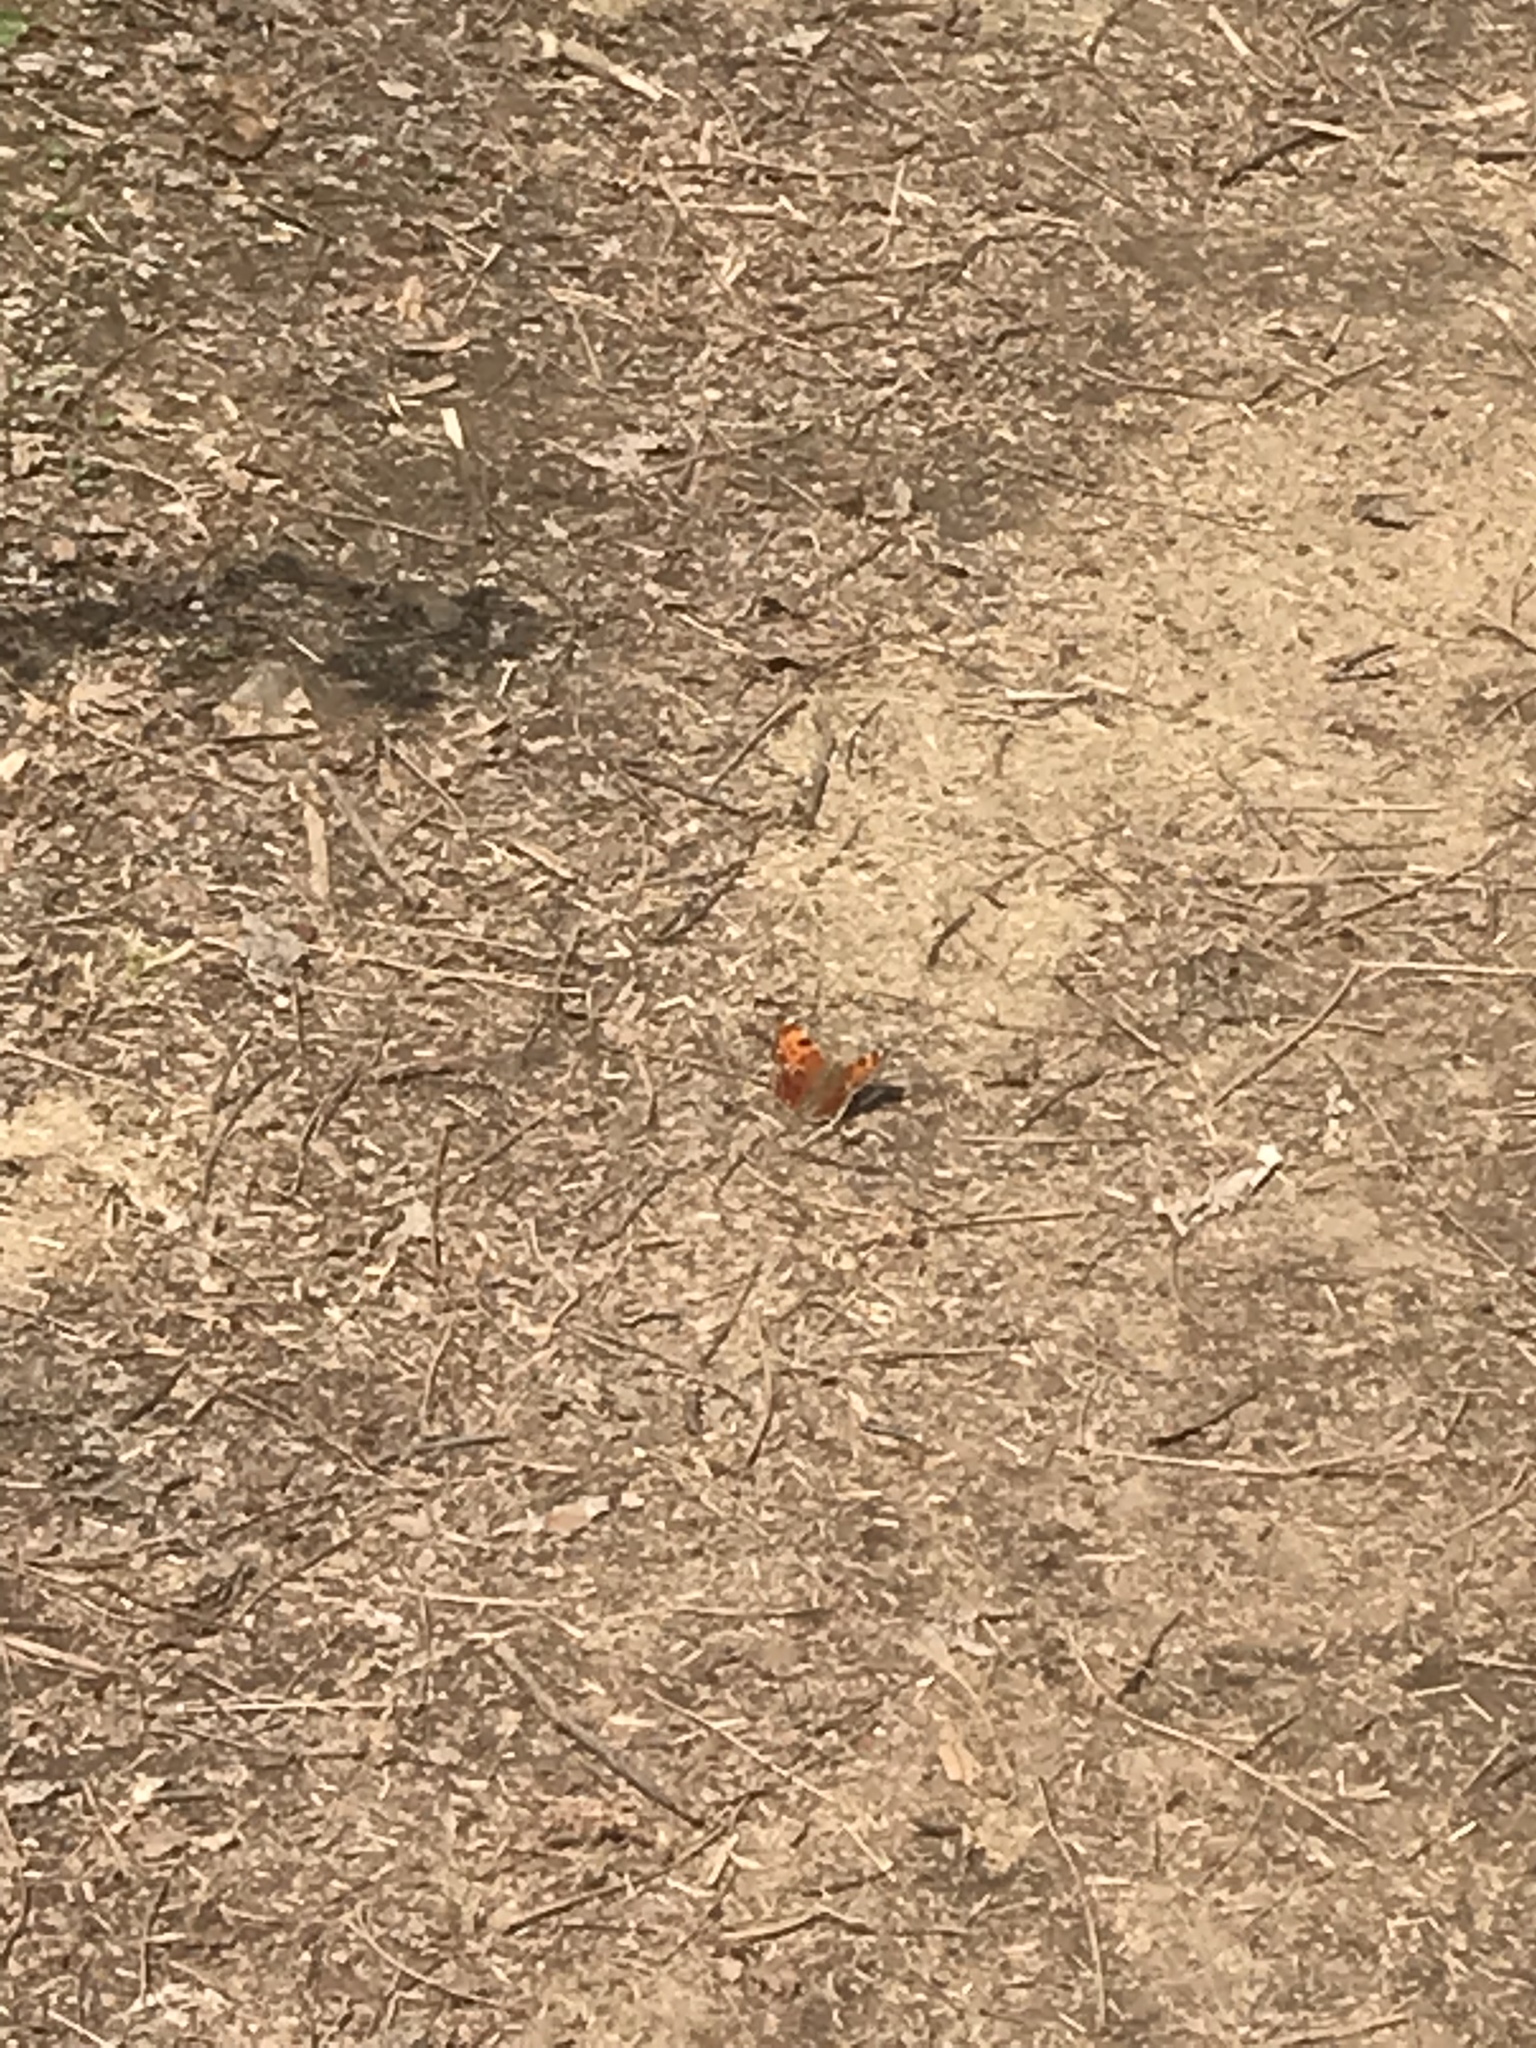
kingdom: Animalia
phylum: Arthropoda
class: Insecta
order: Lepidoptera
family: Nymphalidae
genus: Polygonia
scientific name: Polygonia comma
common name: Eastern comma
